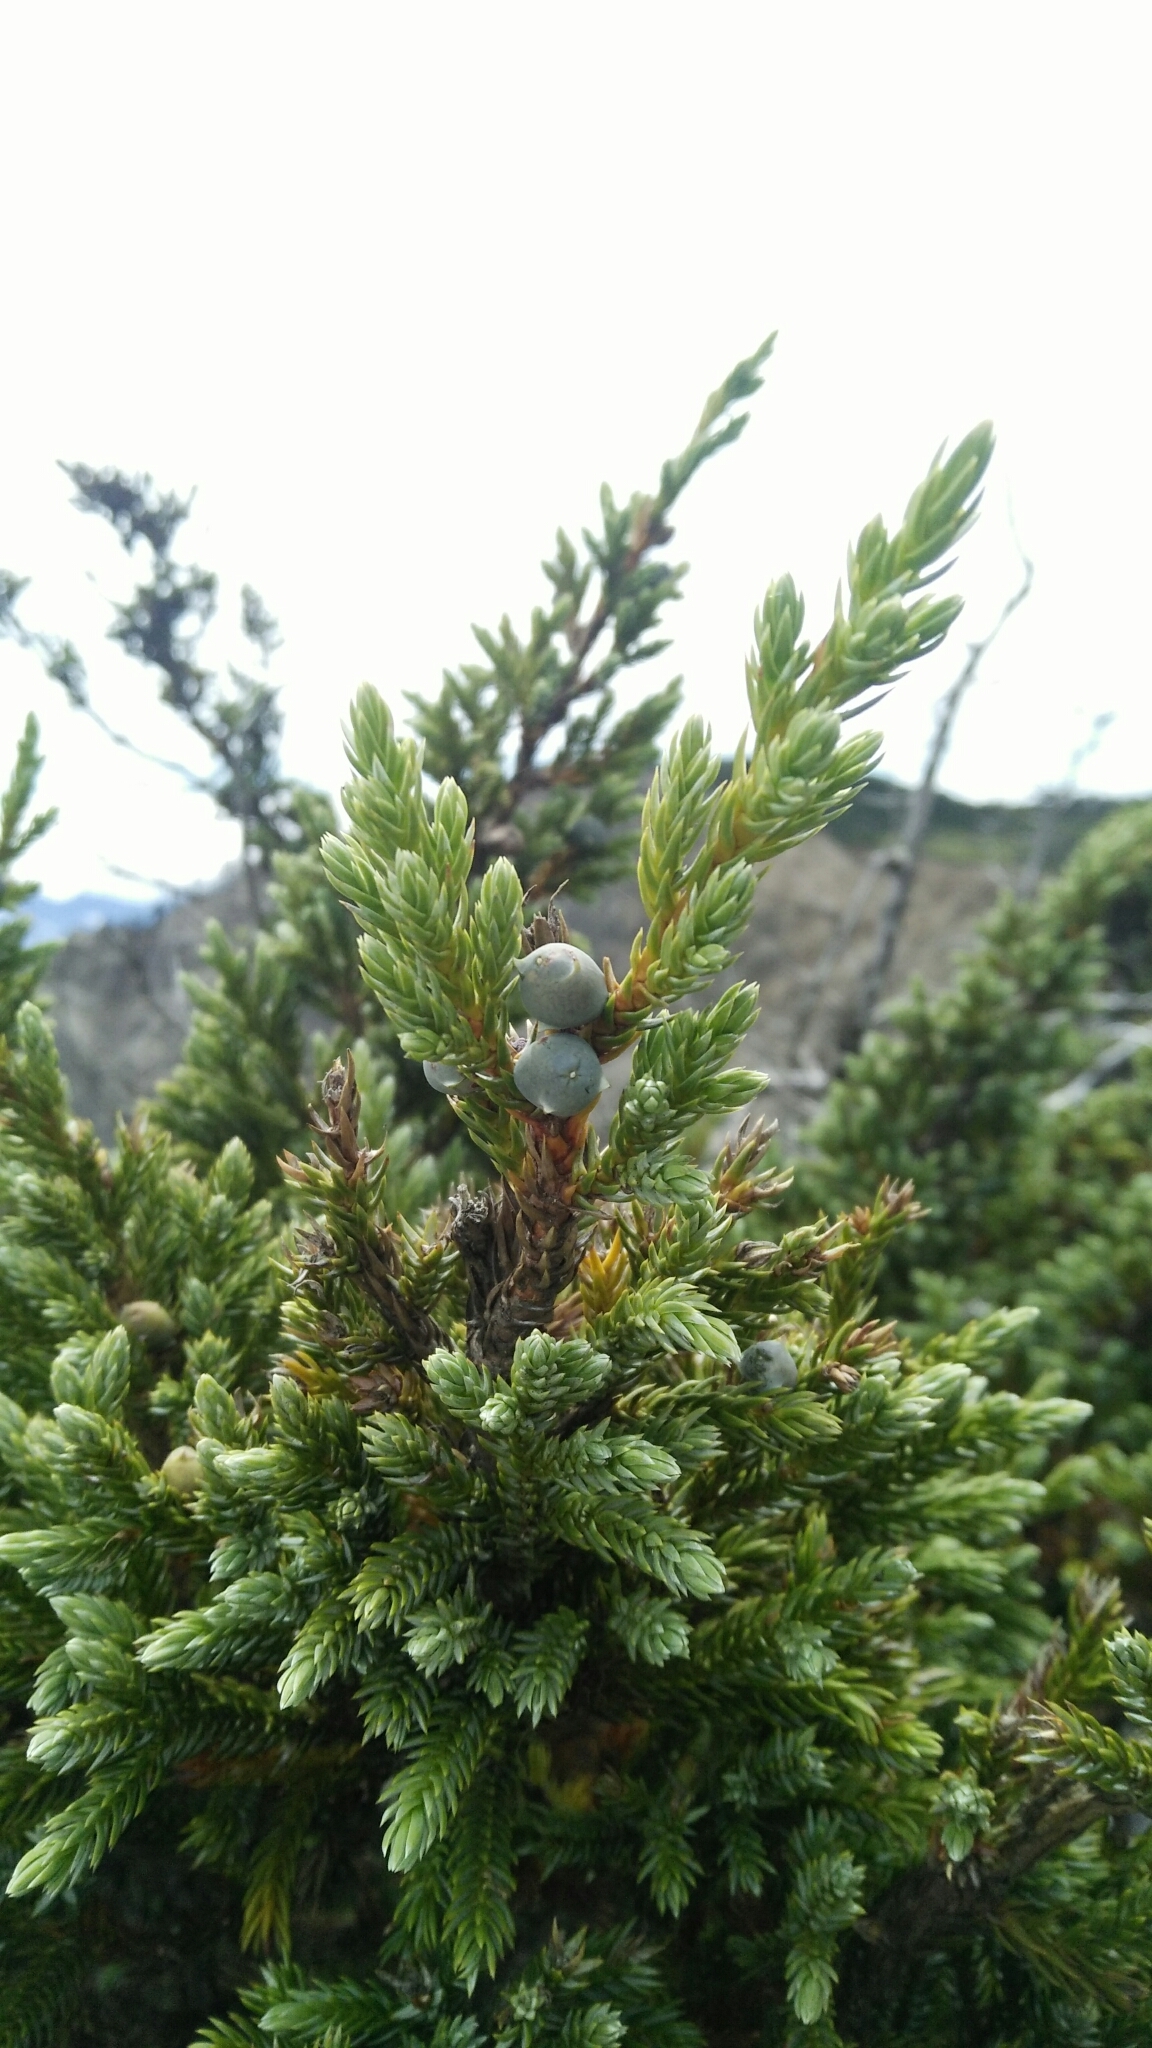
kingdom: Plantae
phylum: Tracheophyta
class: Pinopsida
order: Pinales
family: Cupressaceae
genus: Juniperus
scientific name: Juniperus squamata
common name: Flaky juniper
